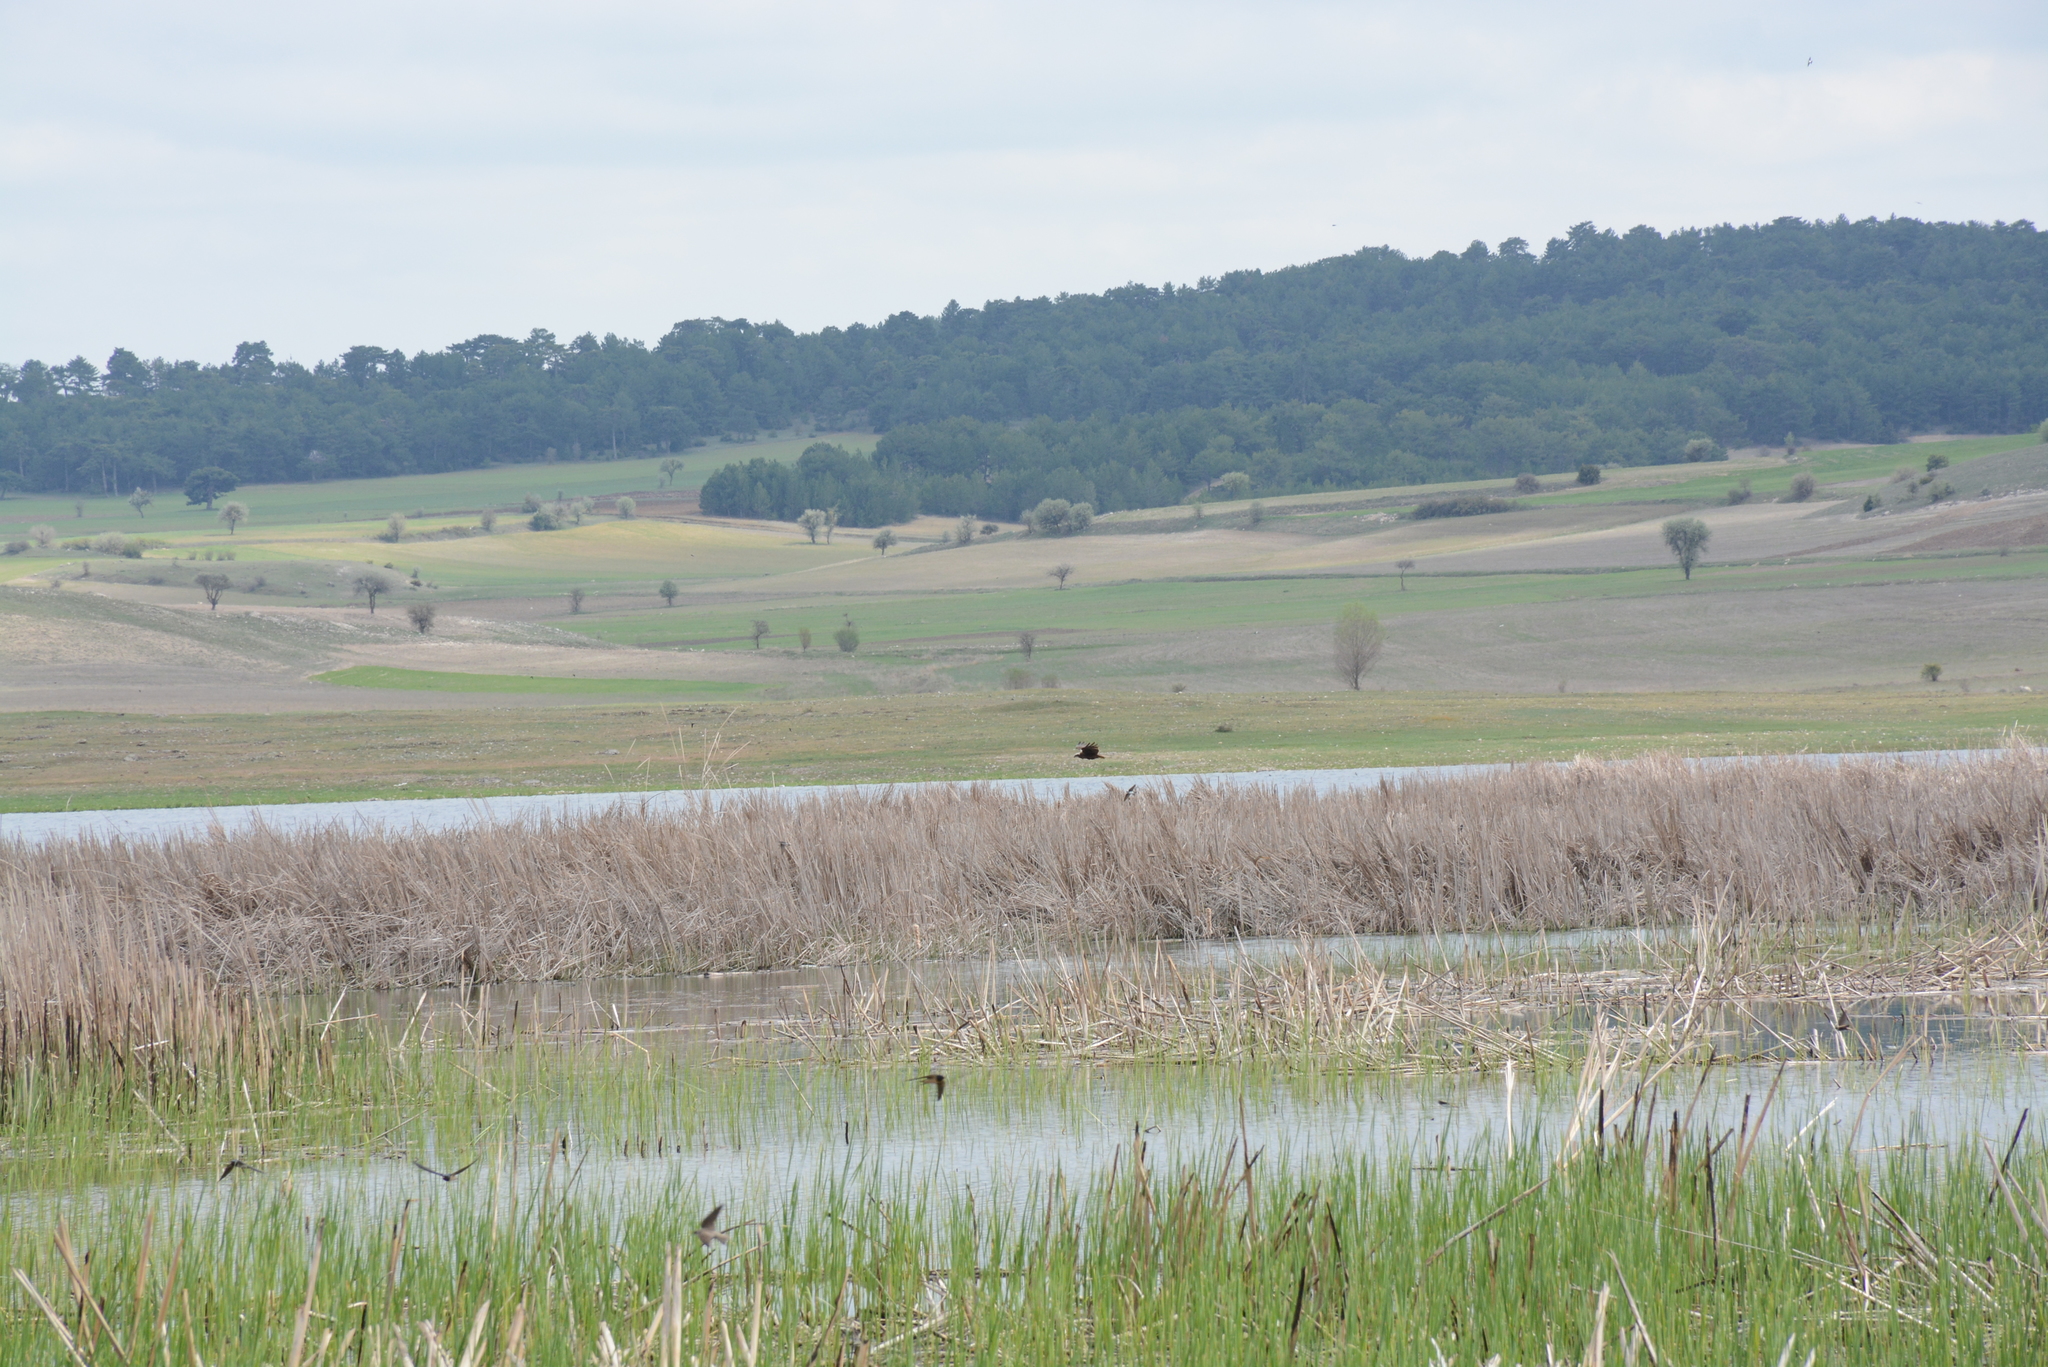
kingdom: Animalia
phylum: Chordata
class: Aves
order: Accipitriformes
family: Accipitridae
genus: Circus
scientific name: Circus aeruginosus
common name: Western marsh harrier
